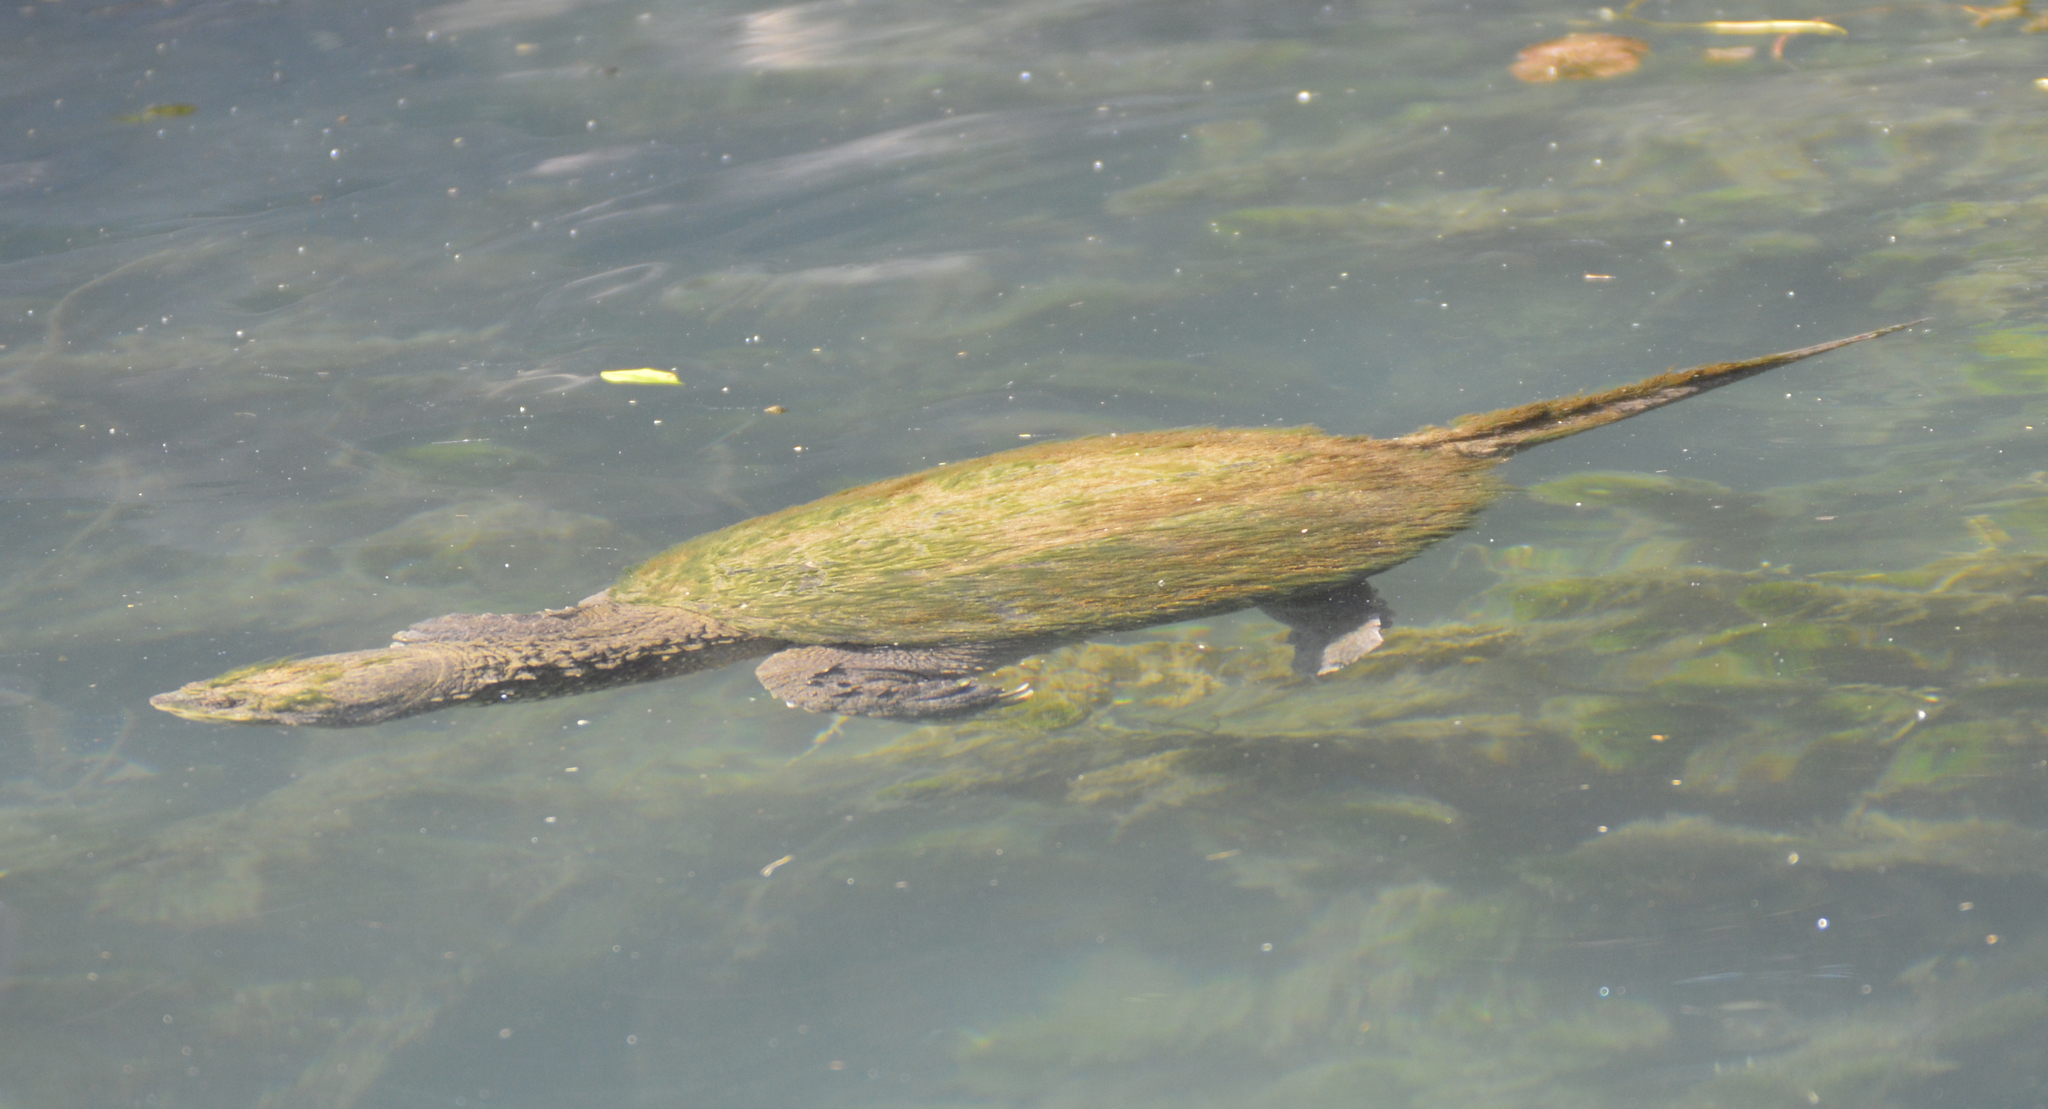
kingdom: Animalia
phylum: Chordata
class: Testudines
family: Chelydridae
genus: Chelydra
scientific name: Chelydra serpentina
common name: Common snapping turtle
